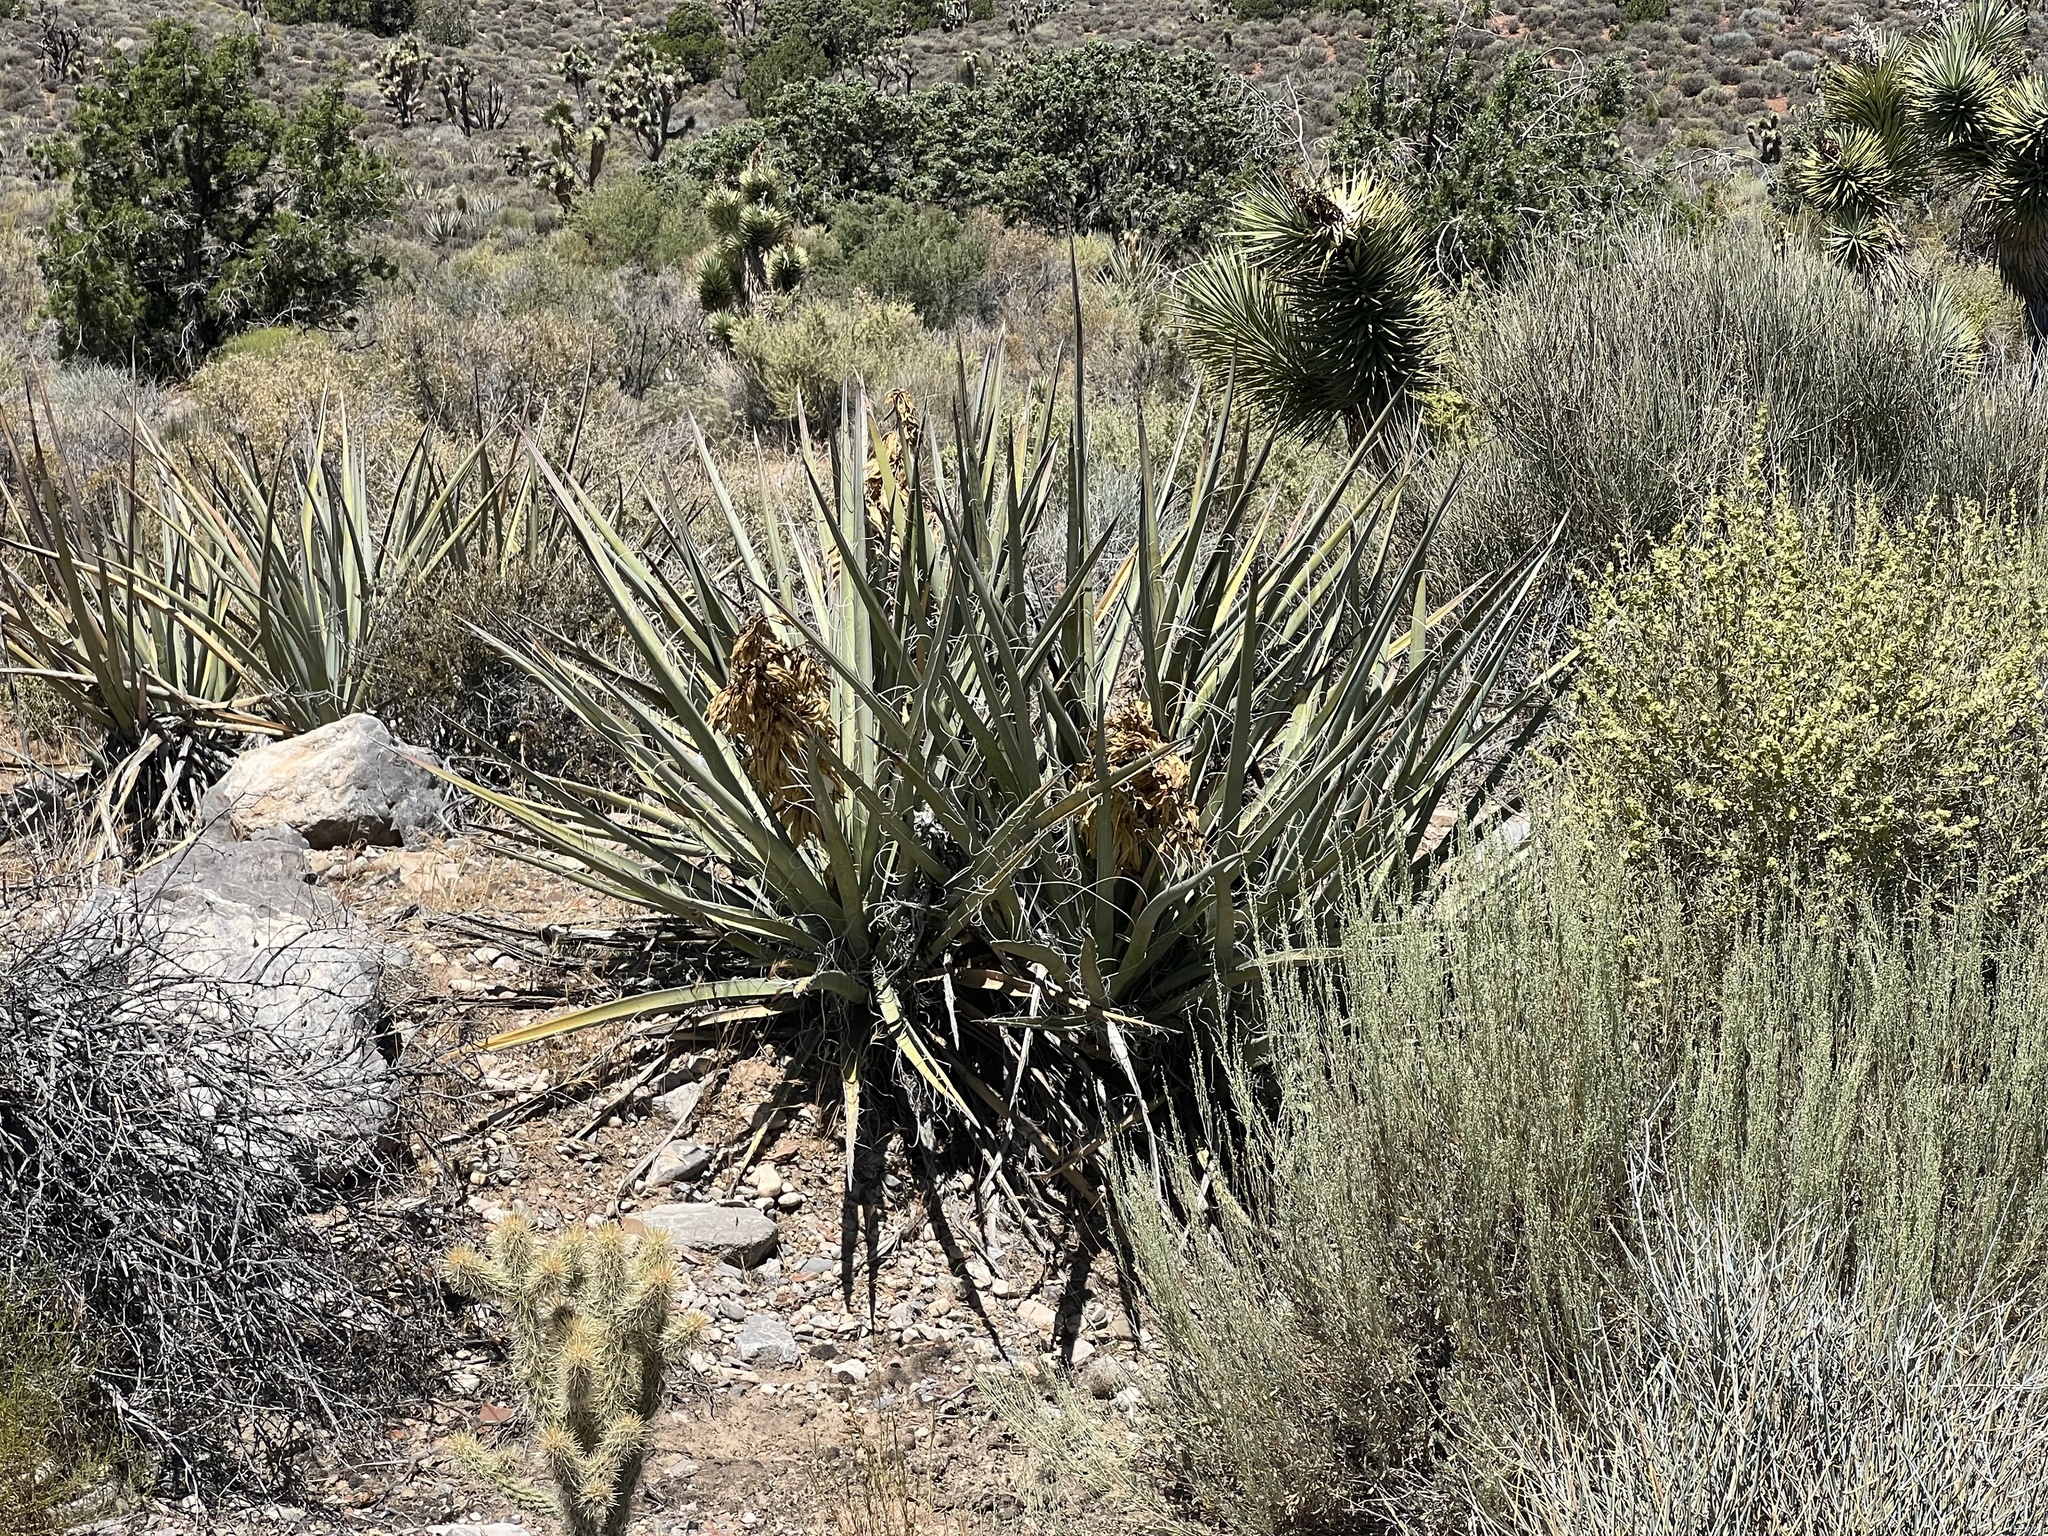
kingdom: Plantae
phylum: Tracheophyta
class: Liliopsida
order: Asparagales
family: Asparagaceae
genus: Yucca
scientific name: Yucca baccata
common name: Banana yucca
